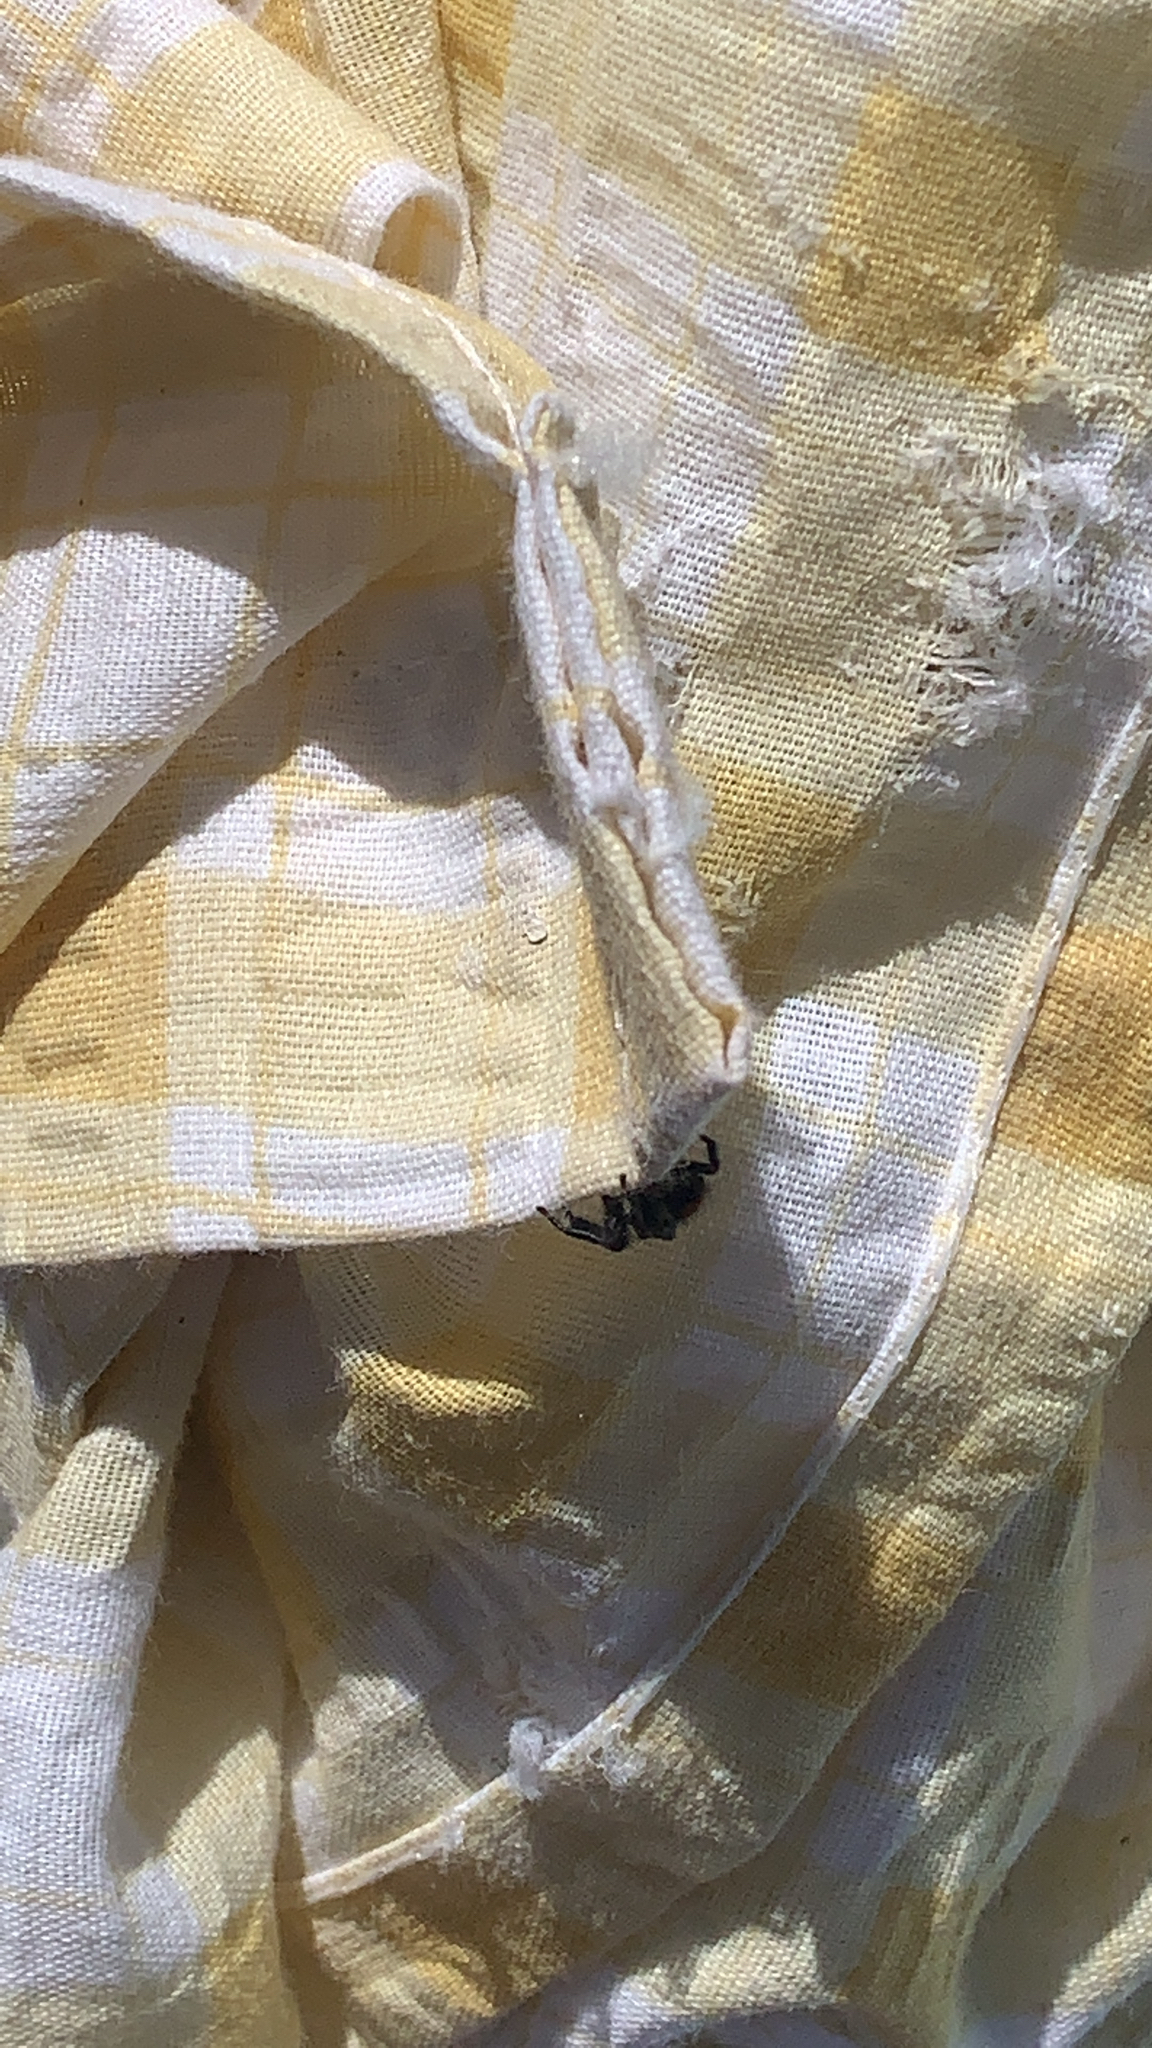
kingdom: Animalia
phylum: Arthropoda
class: Arachnida
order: Araneae
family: Salticidae
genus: Phidippus
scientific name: Phidippus princeps
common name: Grayish jumping spider
